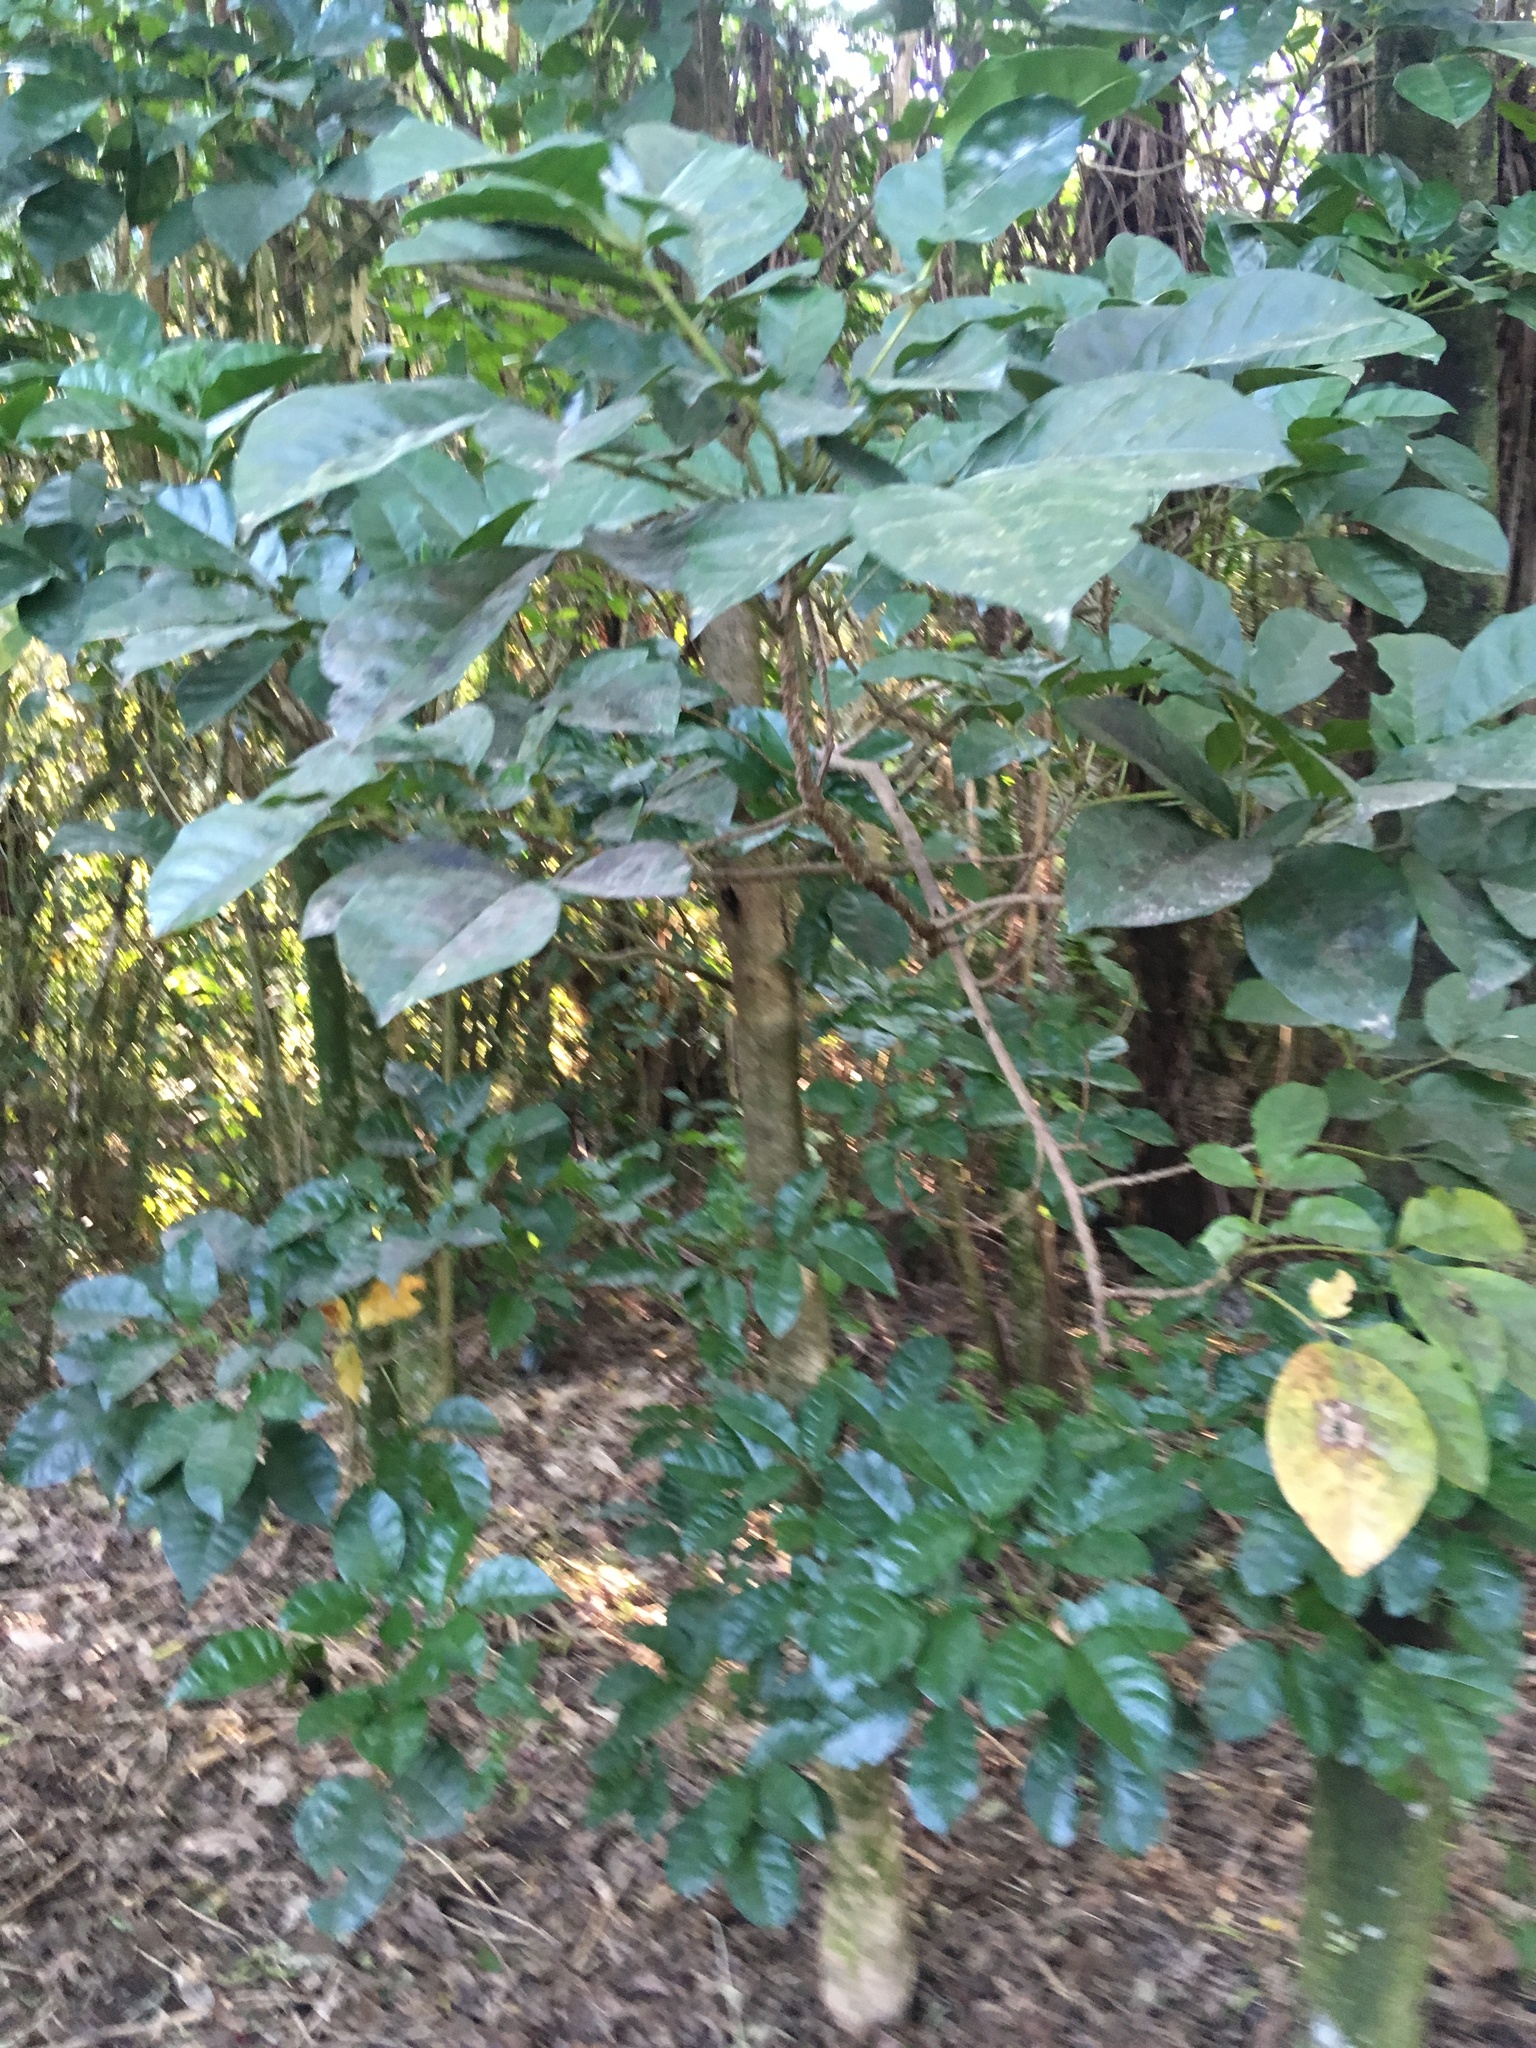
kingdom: Plantae
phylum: Tracheophyta
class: Magnoliopsida
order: Lamiales
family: Lamiaceae
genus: Vitex
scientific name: Vitex lucens
